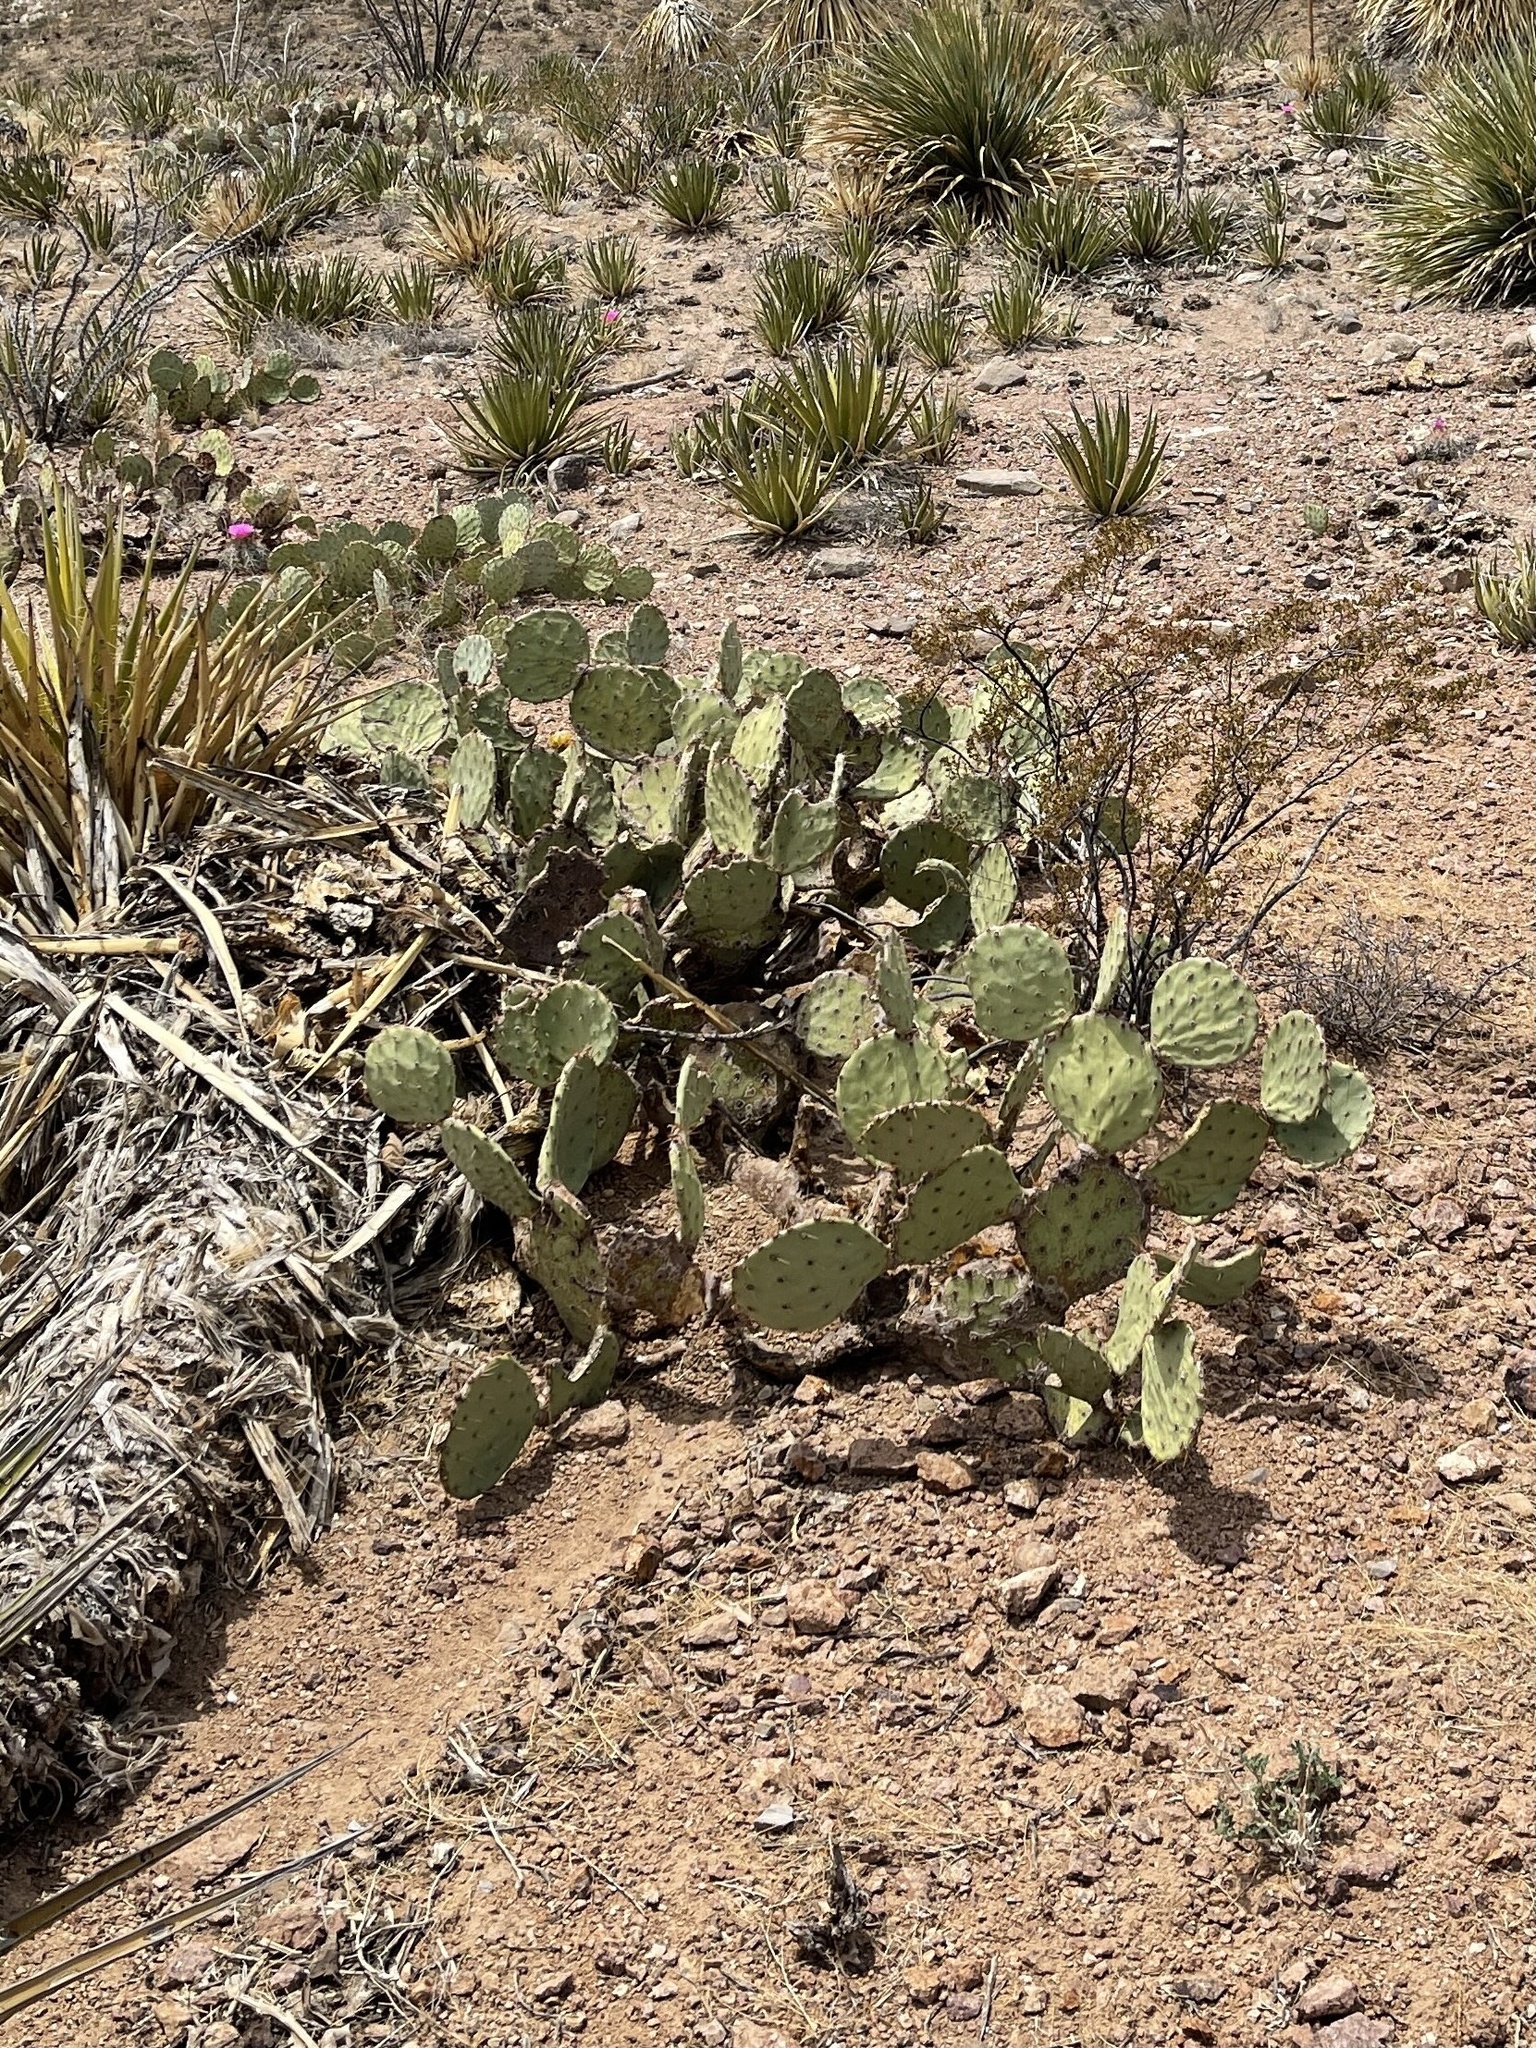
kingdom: Plantae
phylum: Tracheophyta
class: Magnoliopsida
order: Caryophyllales
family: Cactaceae
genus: Opuntia
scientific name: Opuntia engelmannii
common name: Cactus-apple
